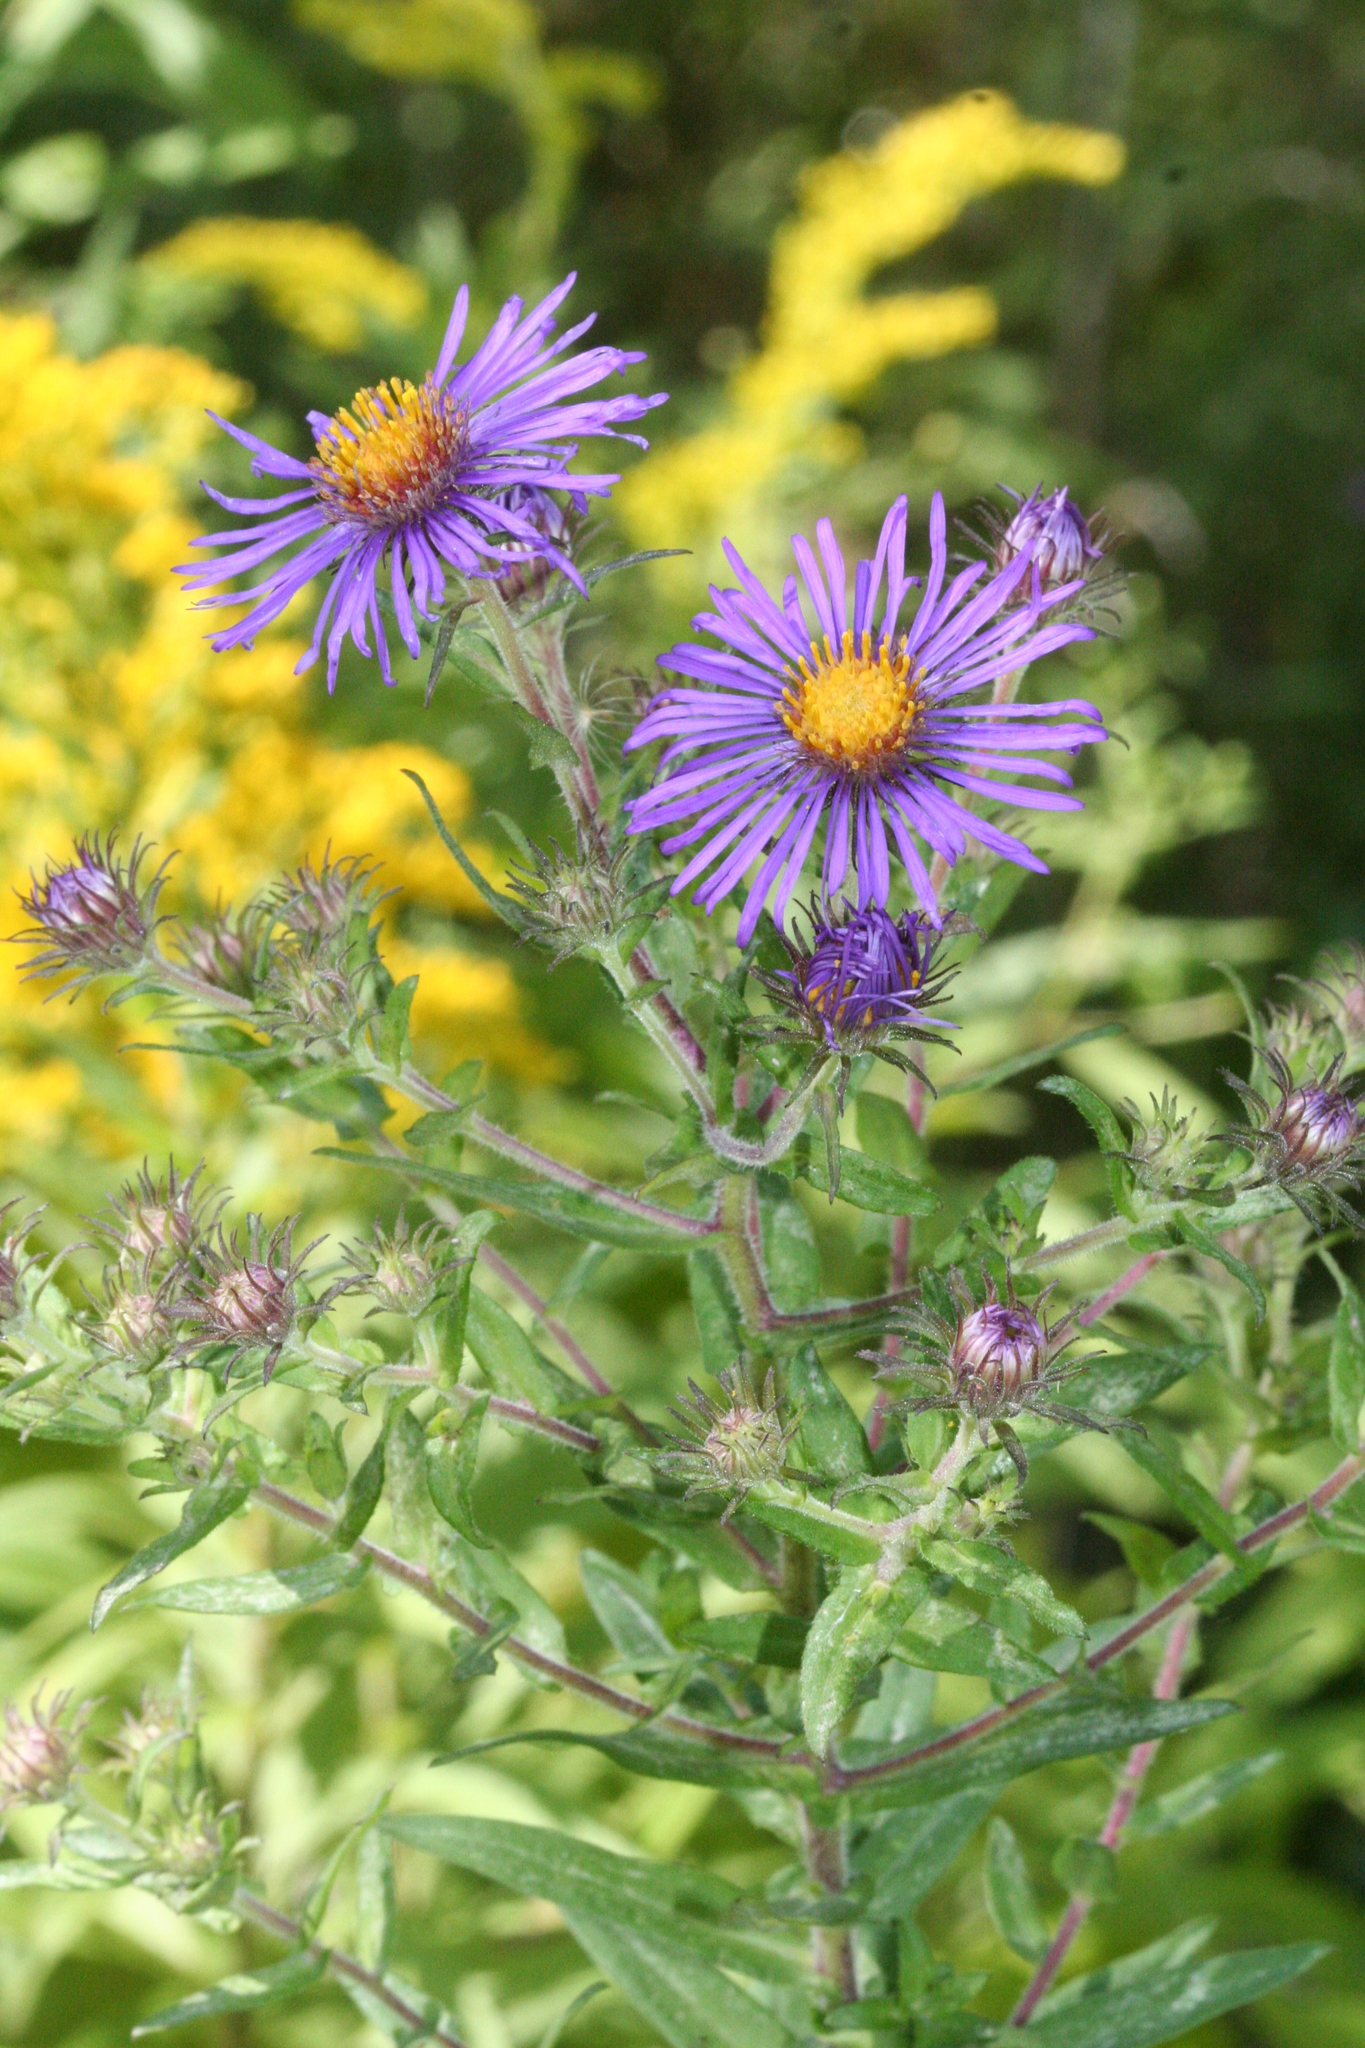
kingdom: Plantae
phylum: Tracheophyta
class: Magnoliopsida
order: Asterales
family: Asteraceae
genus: Symphyotrichum
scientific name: Symphyotrichum novae-angliae
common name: Michaelmas daisy
